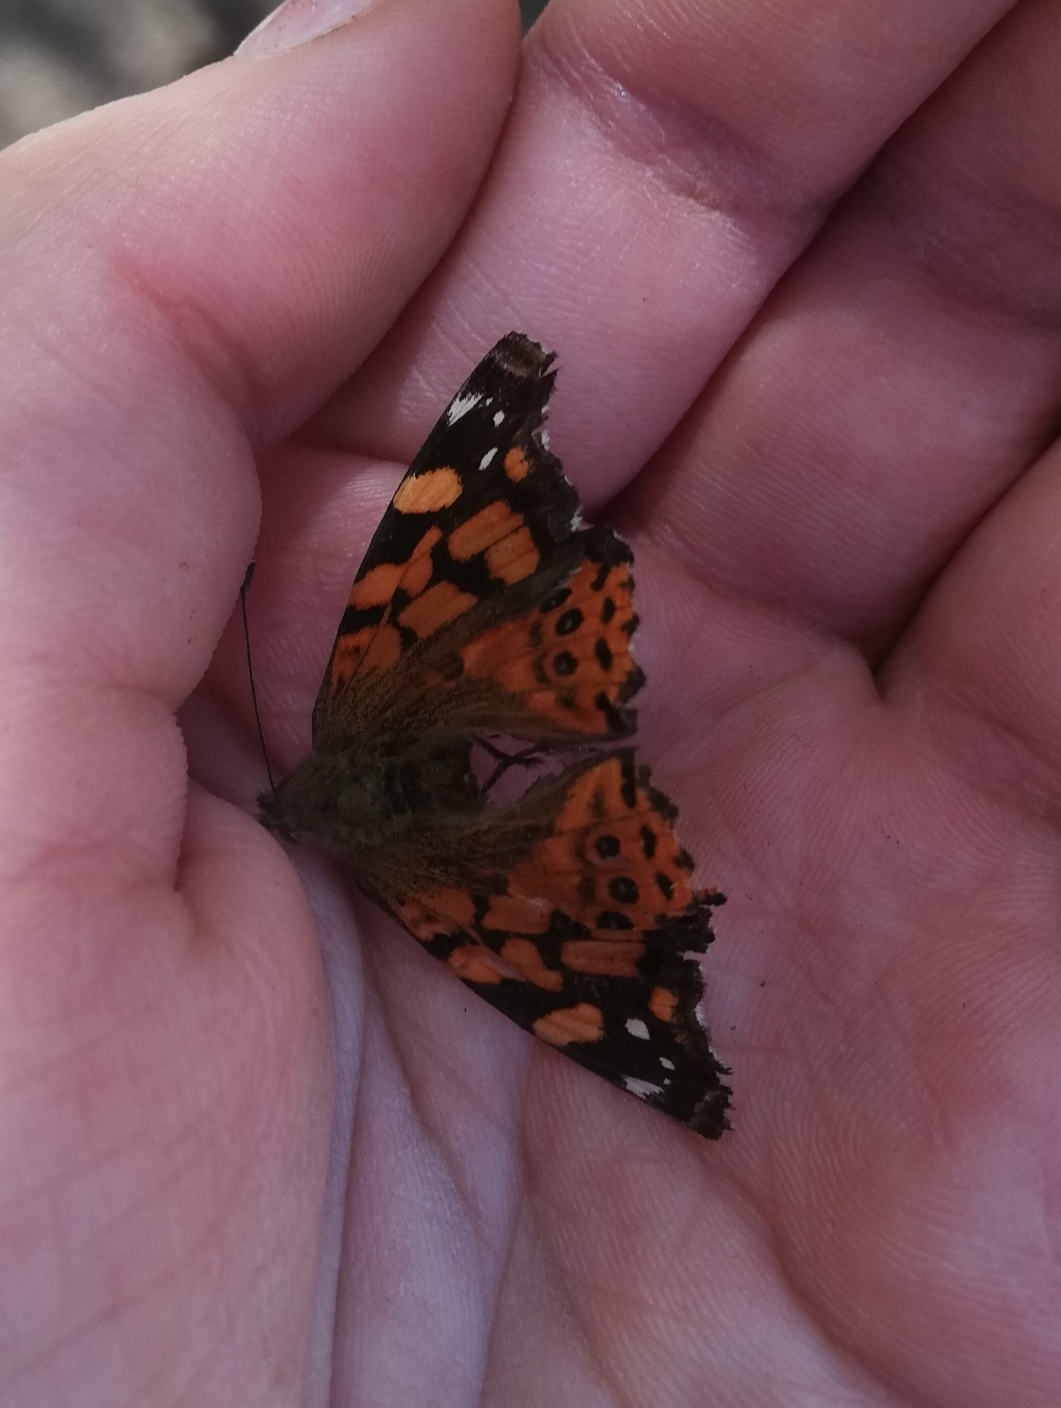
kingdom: Animalia
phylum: Arthropoda
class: Insecta
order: Lepidoptera
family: Nymphalidae
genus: Vanessa
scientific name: Vanessa carye
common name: Subtropical lady
